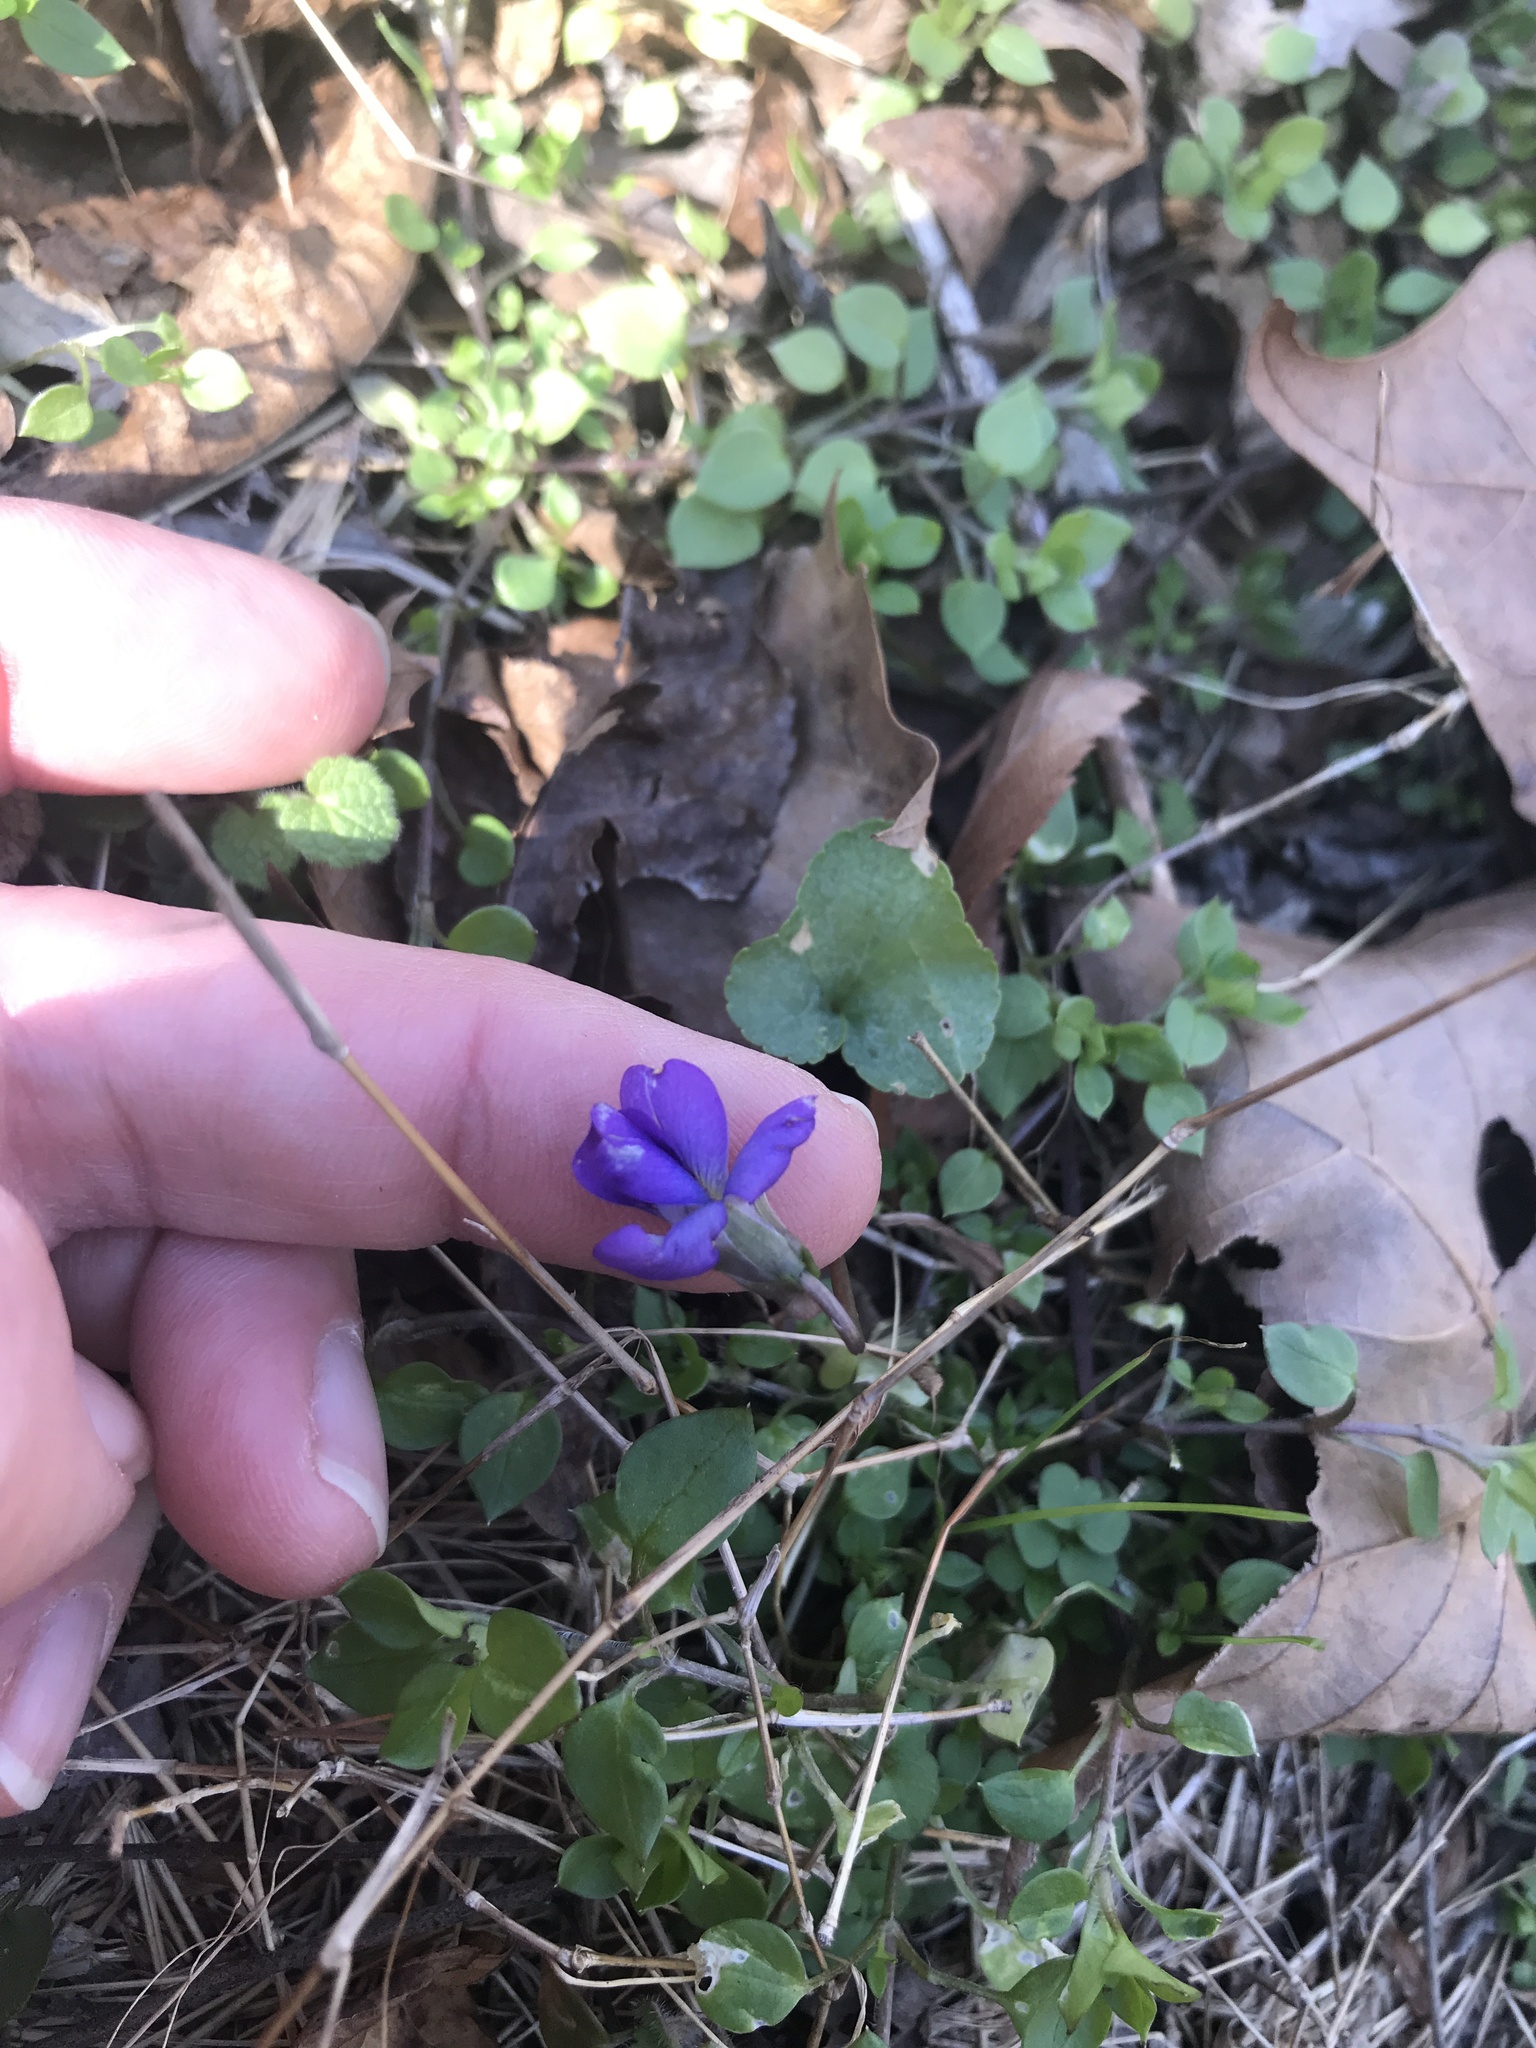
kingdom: Plantae
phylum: Tracheophyta
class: Magnoliopsida
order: Malpighiales
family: Violaceae
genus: Viola
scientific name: Viola sororia
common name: Dooryard violet
